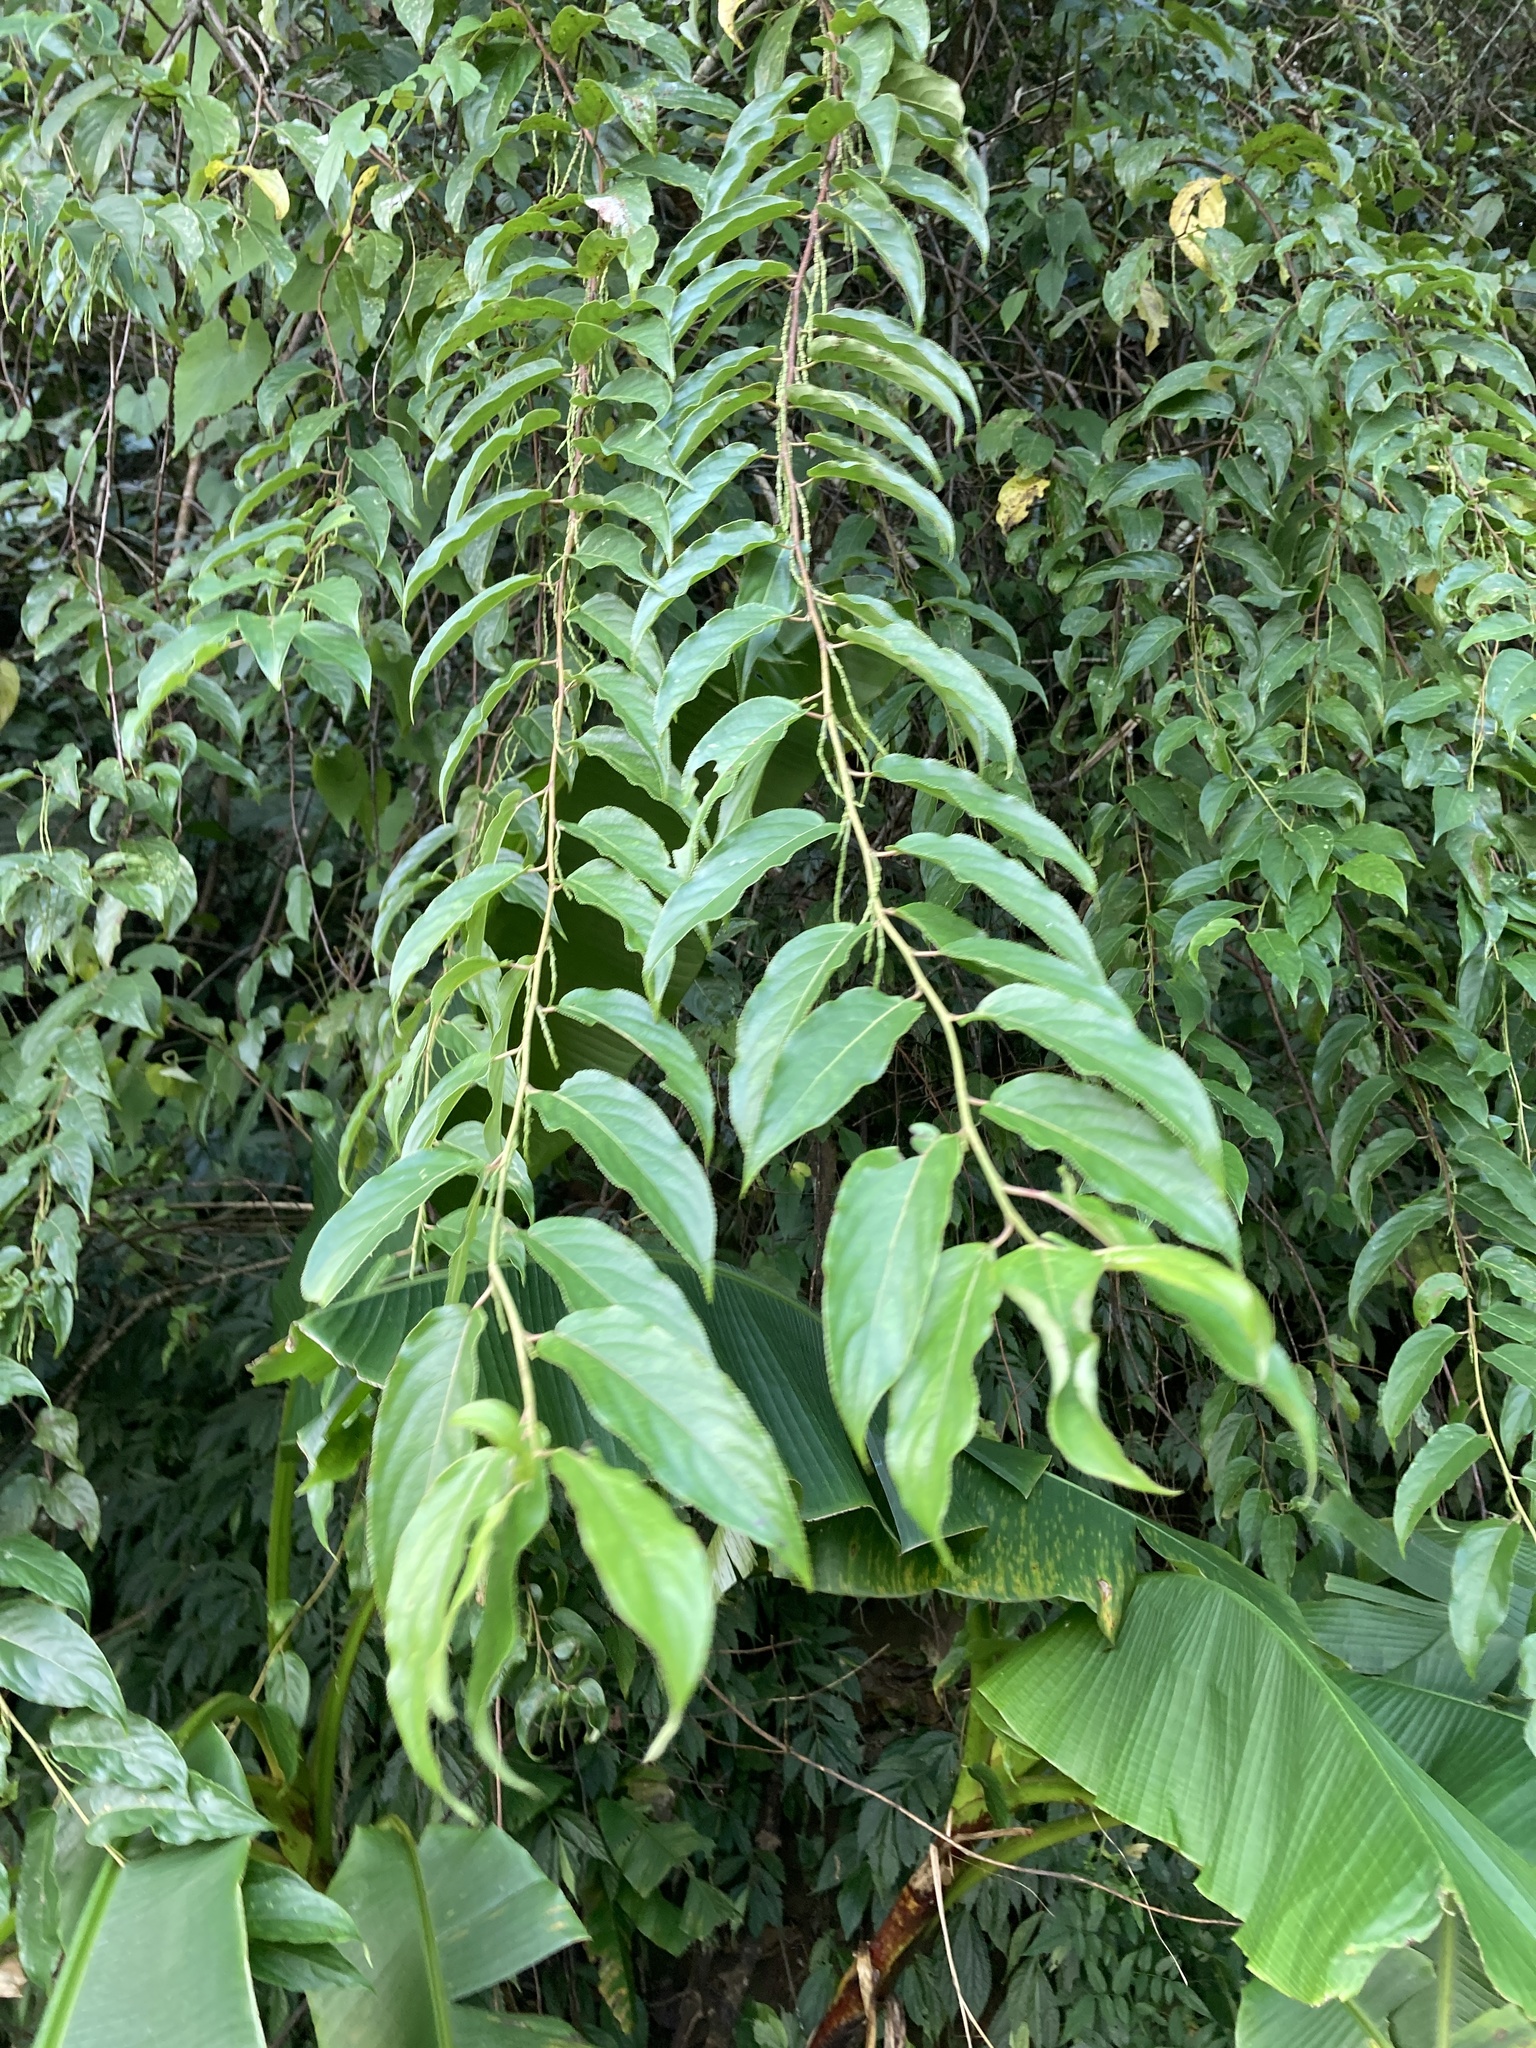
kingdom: Plantae
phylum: Tracheophyta
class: Magnoliopsida
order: Crossosomatales
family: Stachyuraceae
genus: Stachyurus
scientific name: Stachyurus himalaicus
